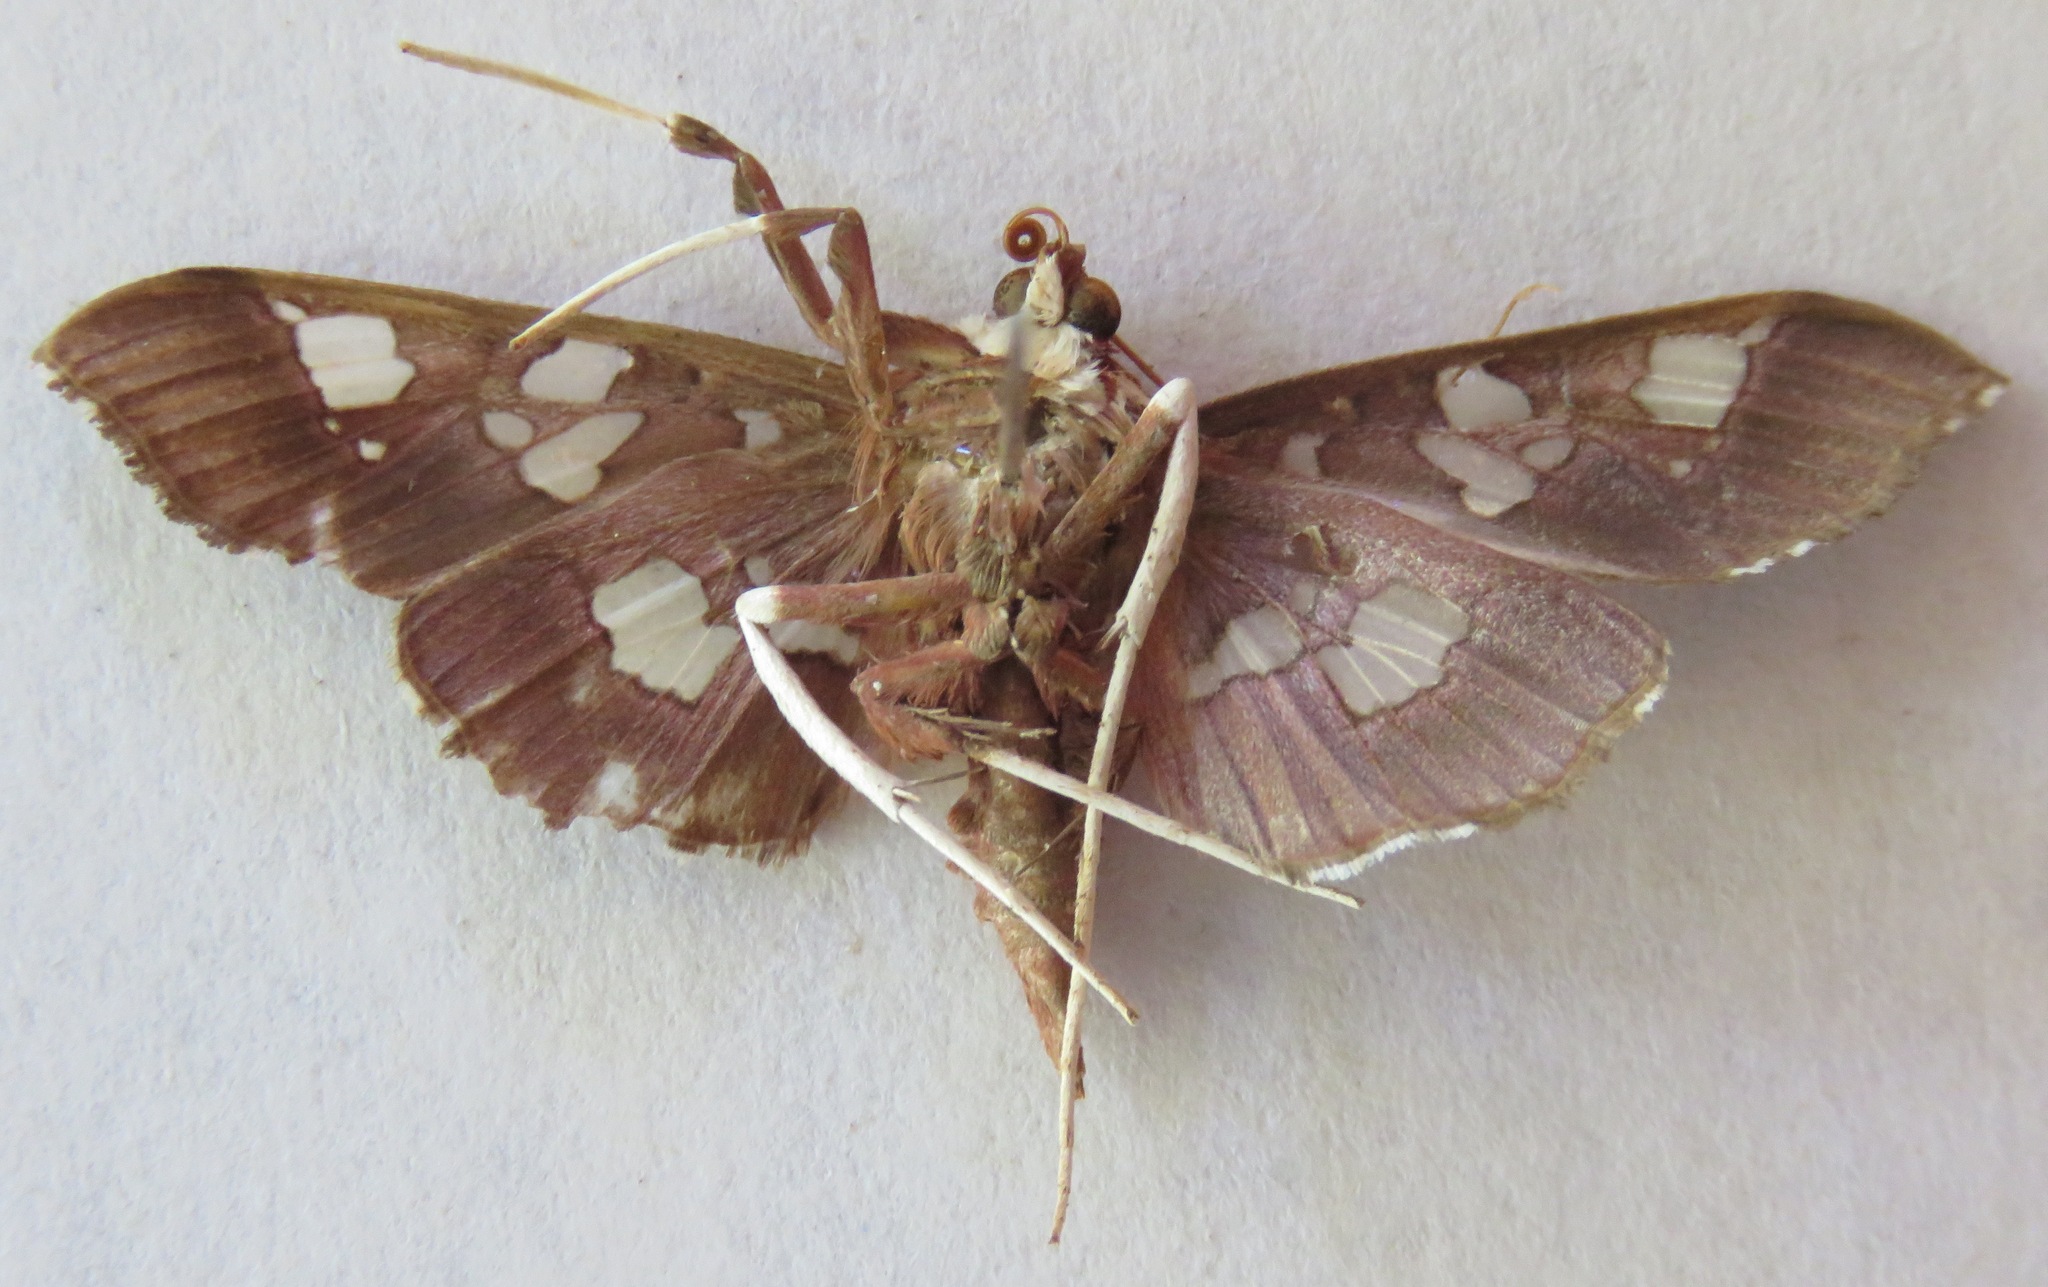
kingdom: Animalia
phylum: Arthropoda
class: Insecta
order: Lepidoptera
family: Crambidae
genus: Phostria
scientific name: Phostria tedea
